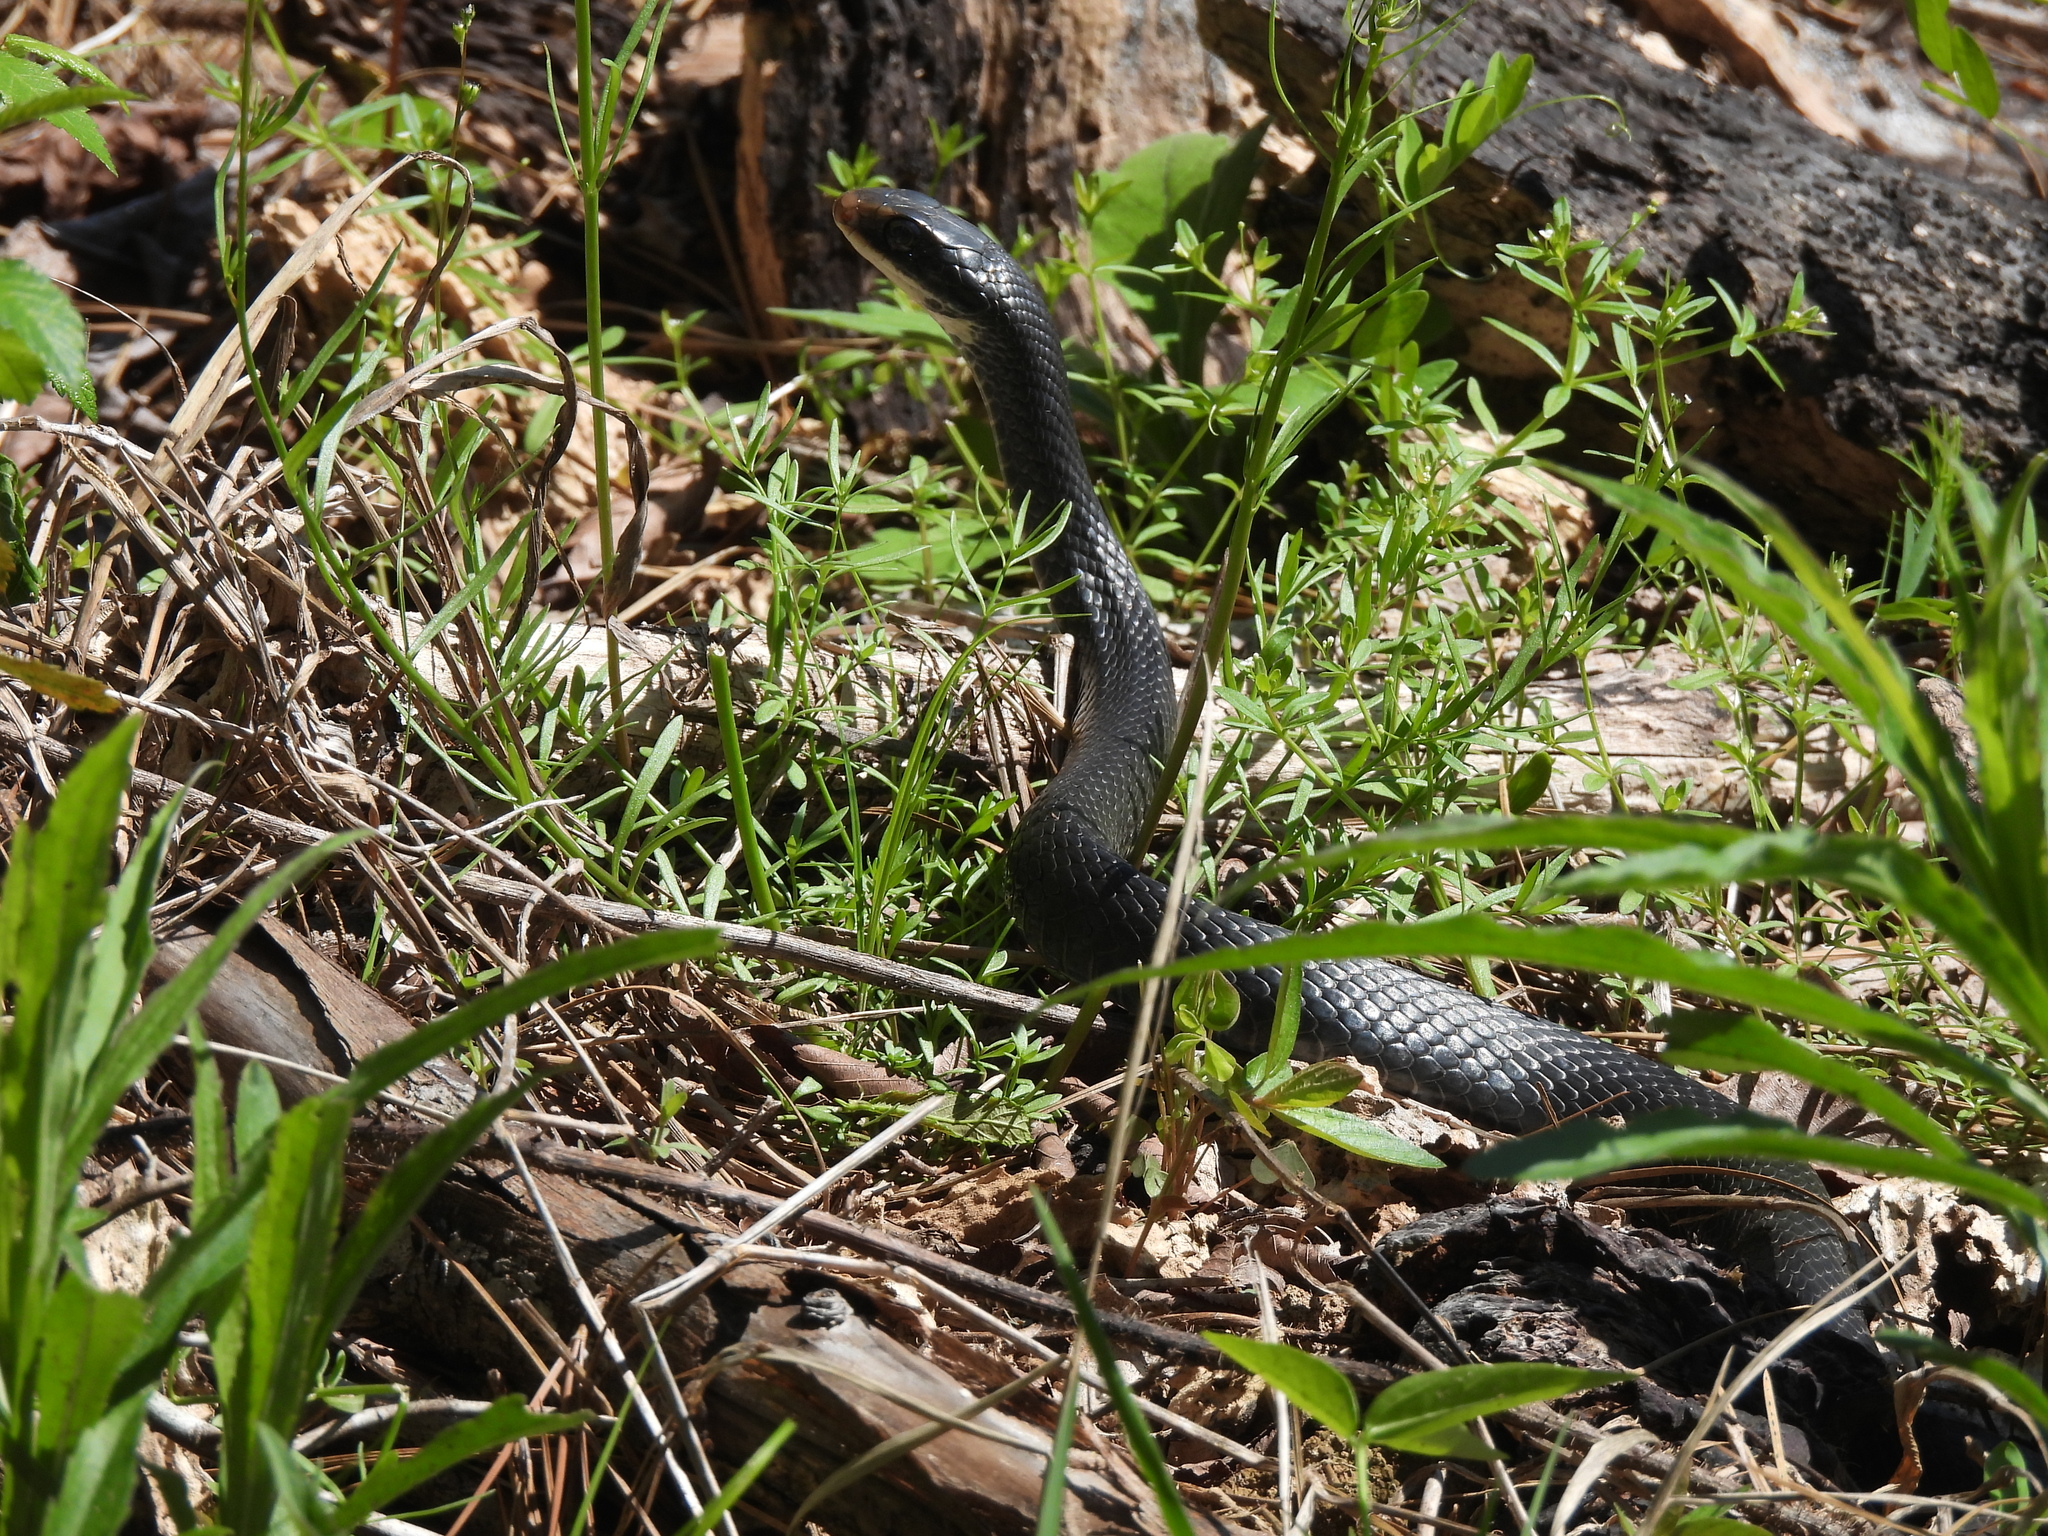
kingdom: Animalia
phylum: Chordata
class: Squamata
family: Colubridae
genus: Coluber
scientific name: Coluber constrictor
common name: Eastern racer
